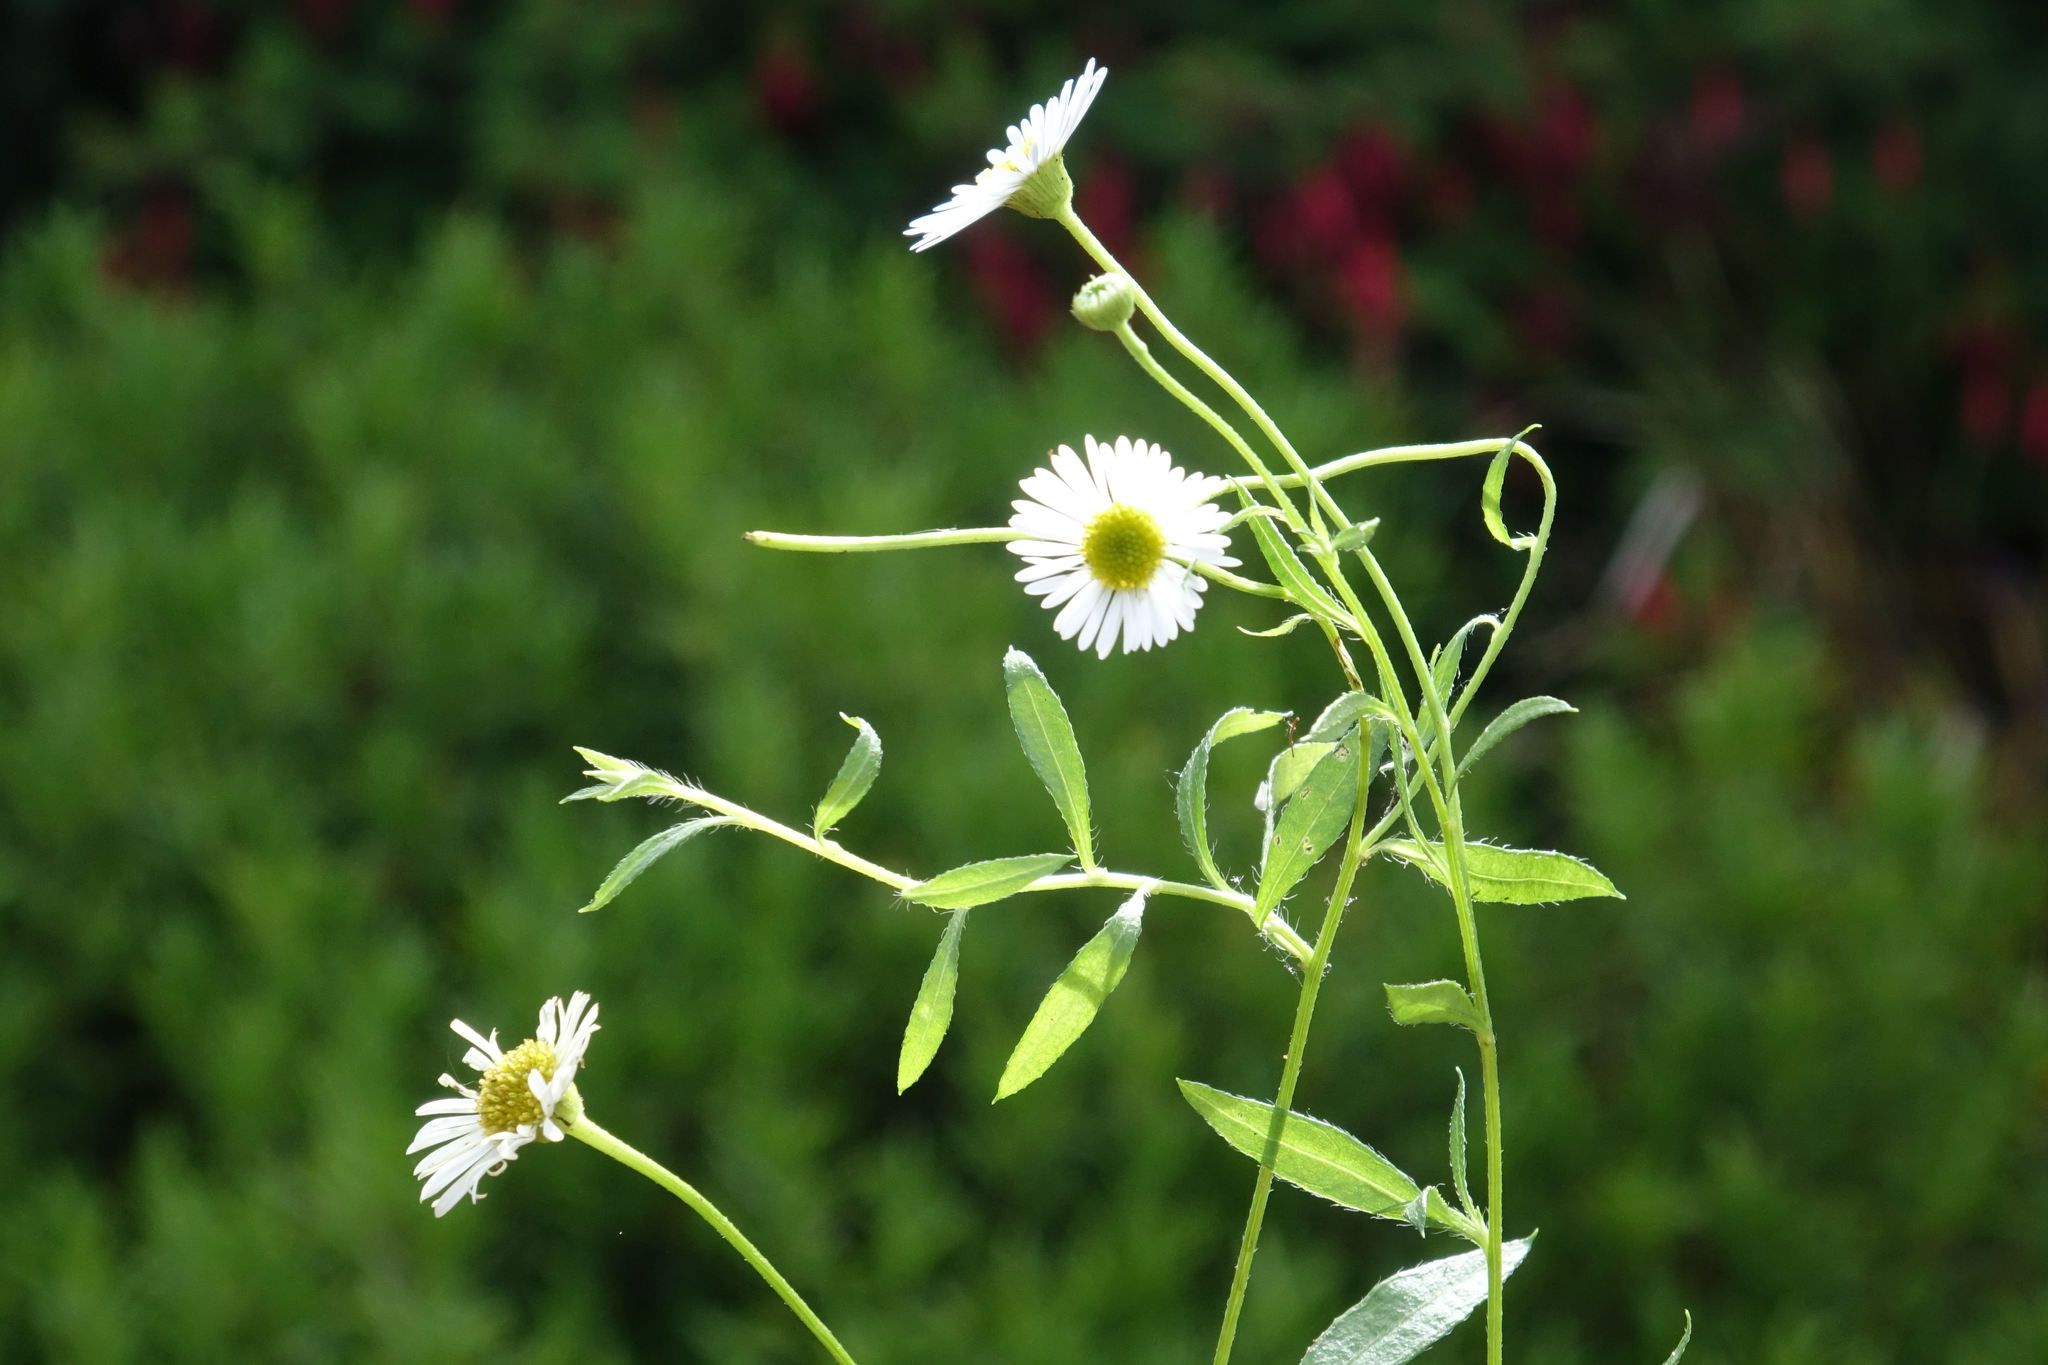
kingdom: Plantae
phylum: Tracheophyta
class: Magnoliopsida
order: Asterales
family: Asteraceae
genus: Erigeron
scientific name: Erigeron karvinskianus
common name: Mexican fleabane
